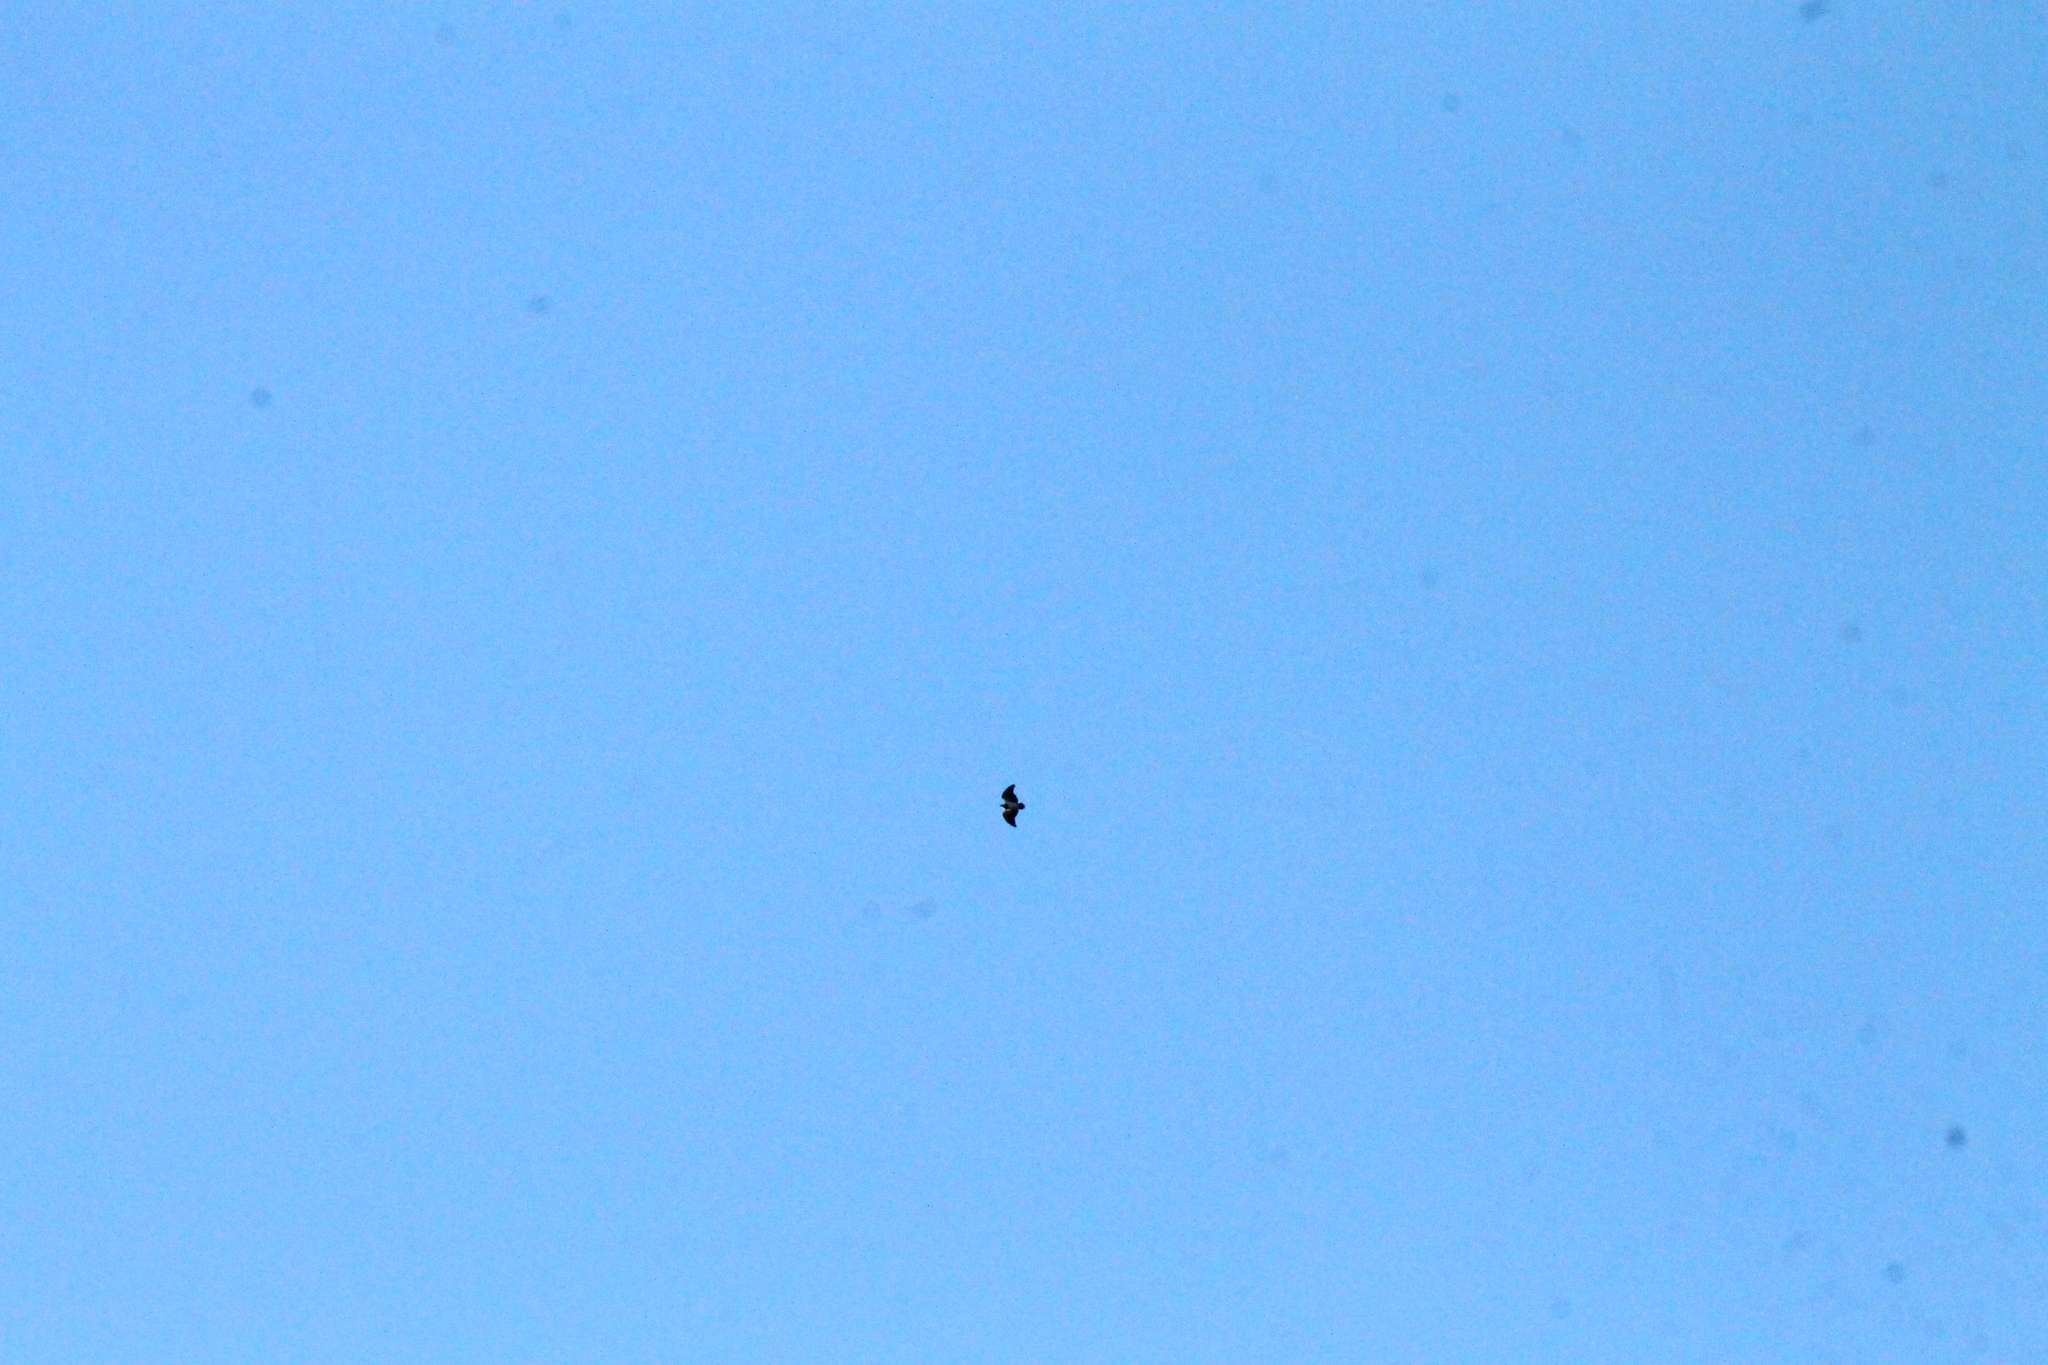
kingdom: Animalia
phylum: Chordata
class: Aves
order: Falconiformes
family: Falconidae
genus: Daptrius
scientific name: Daptrius
